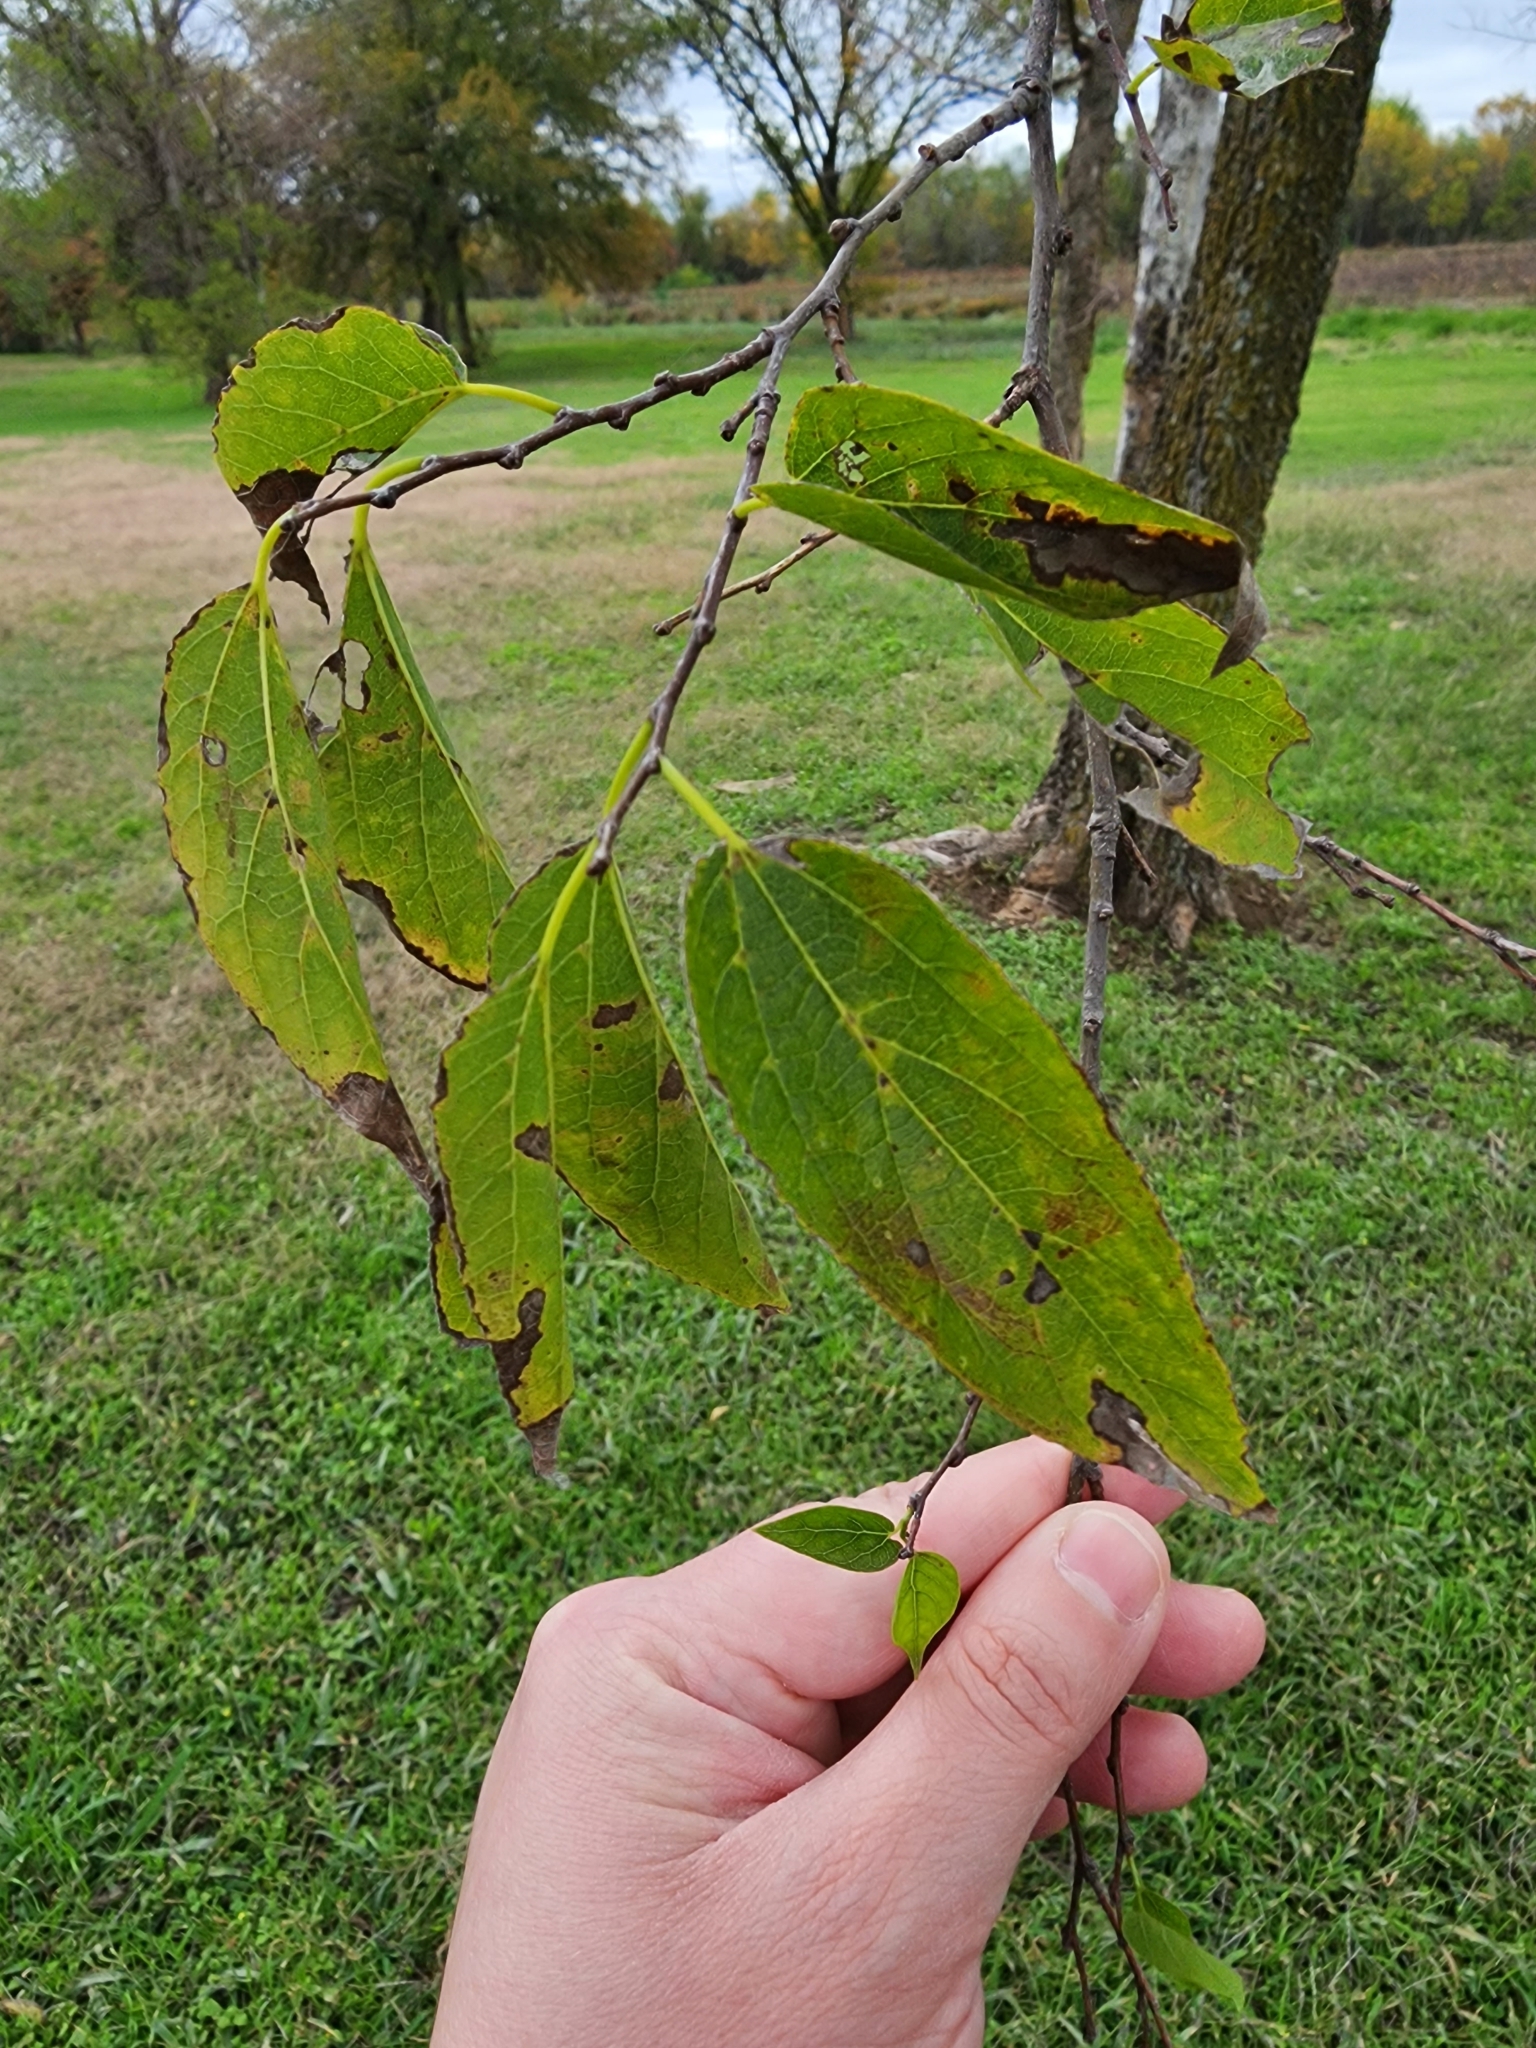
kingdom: Plantae
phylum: Tracheophyta
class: Magnoliopsida
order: Rosales
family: Cannabaceae
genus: Celtis
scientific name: Celtis laevigata
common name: Sugarberry
